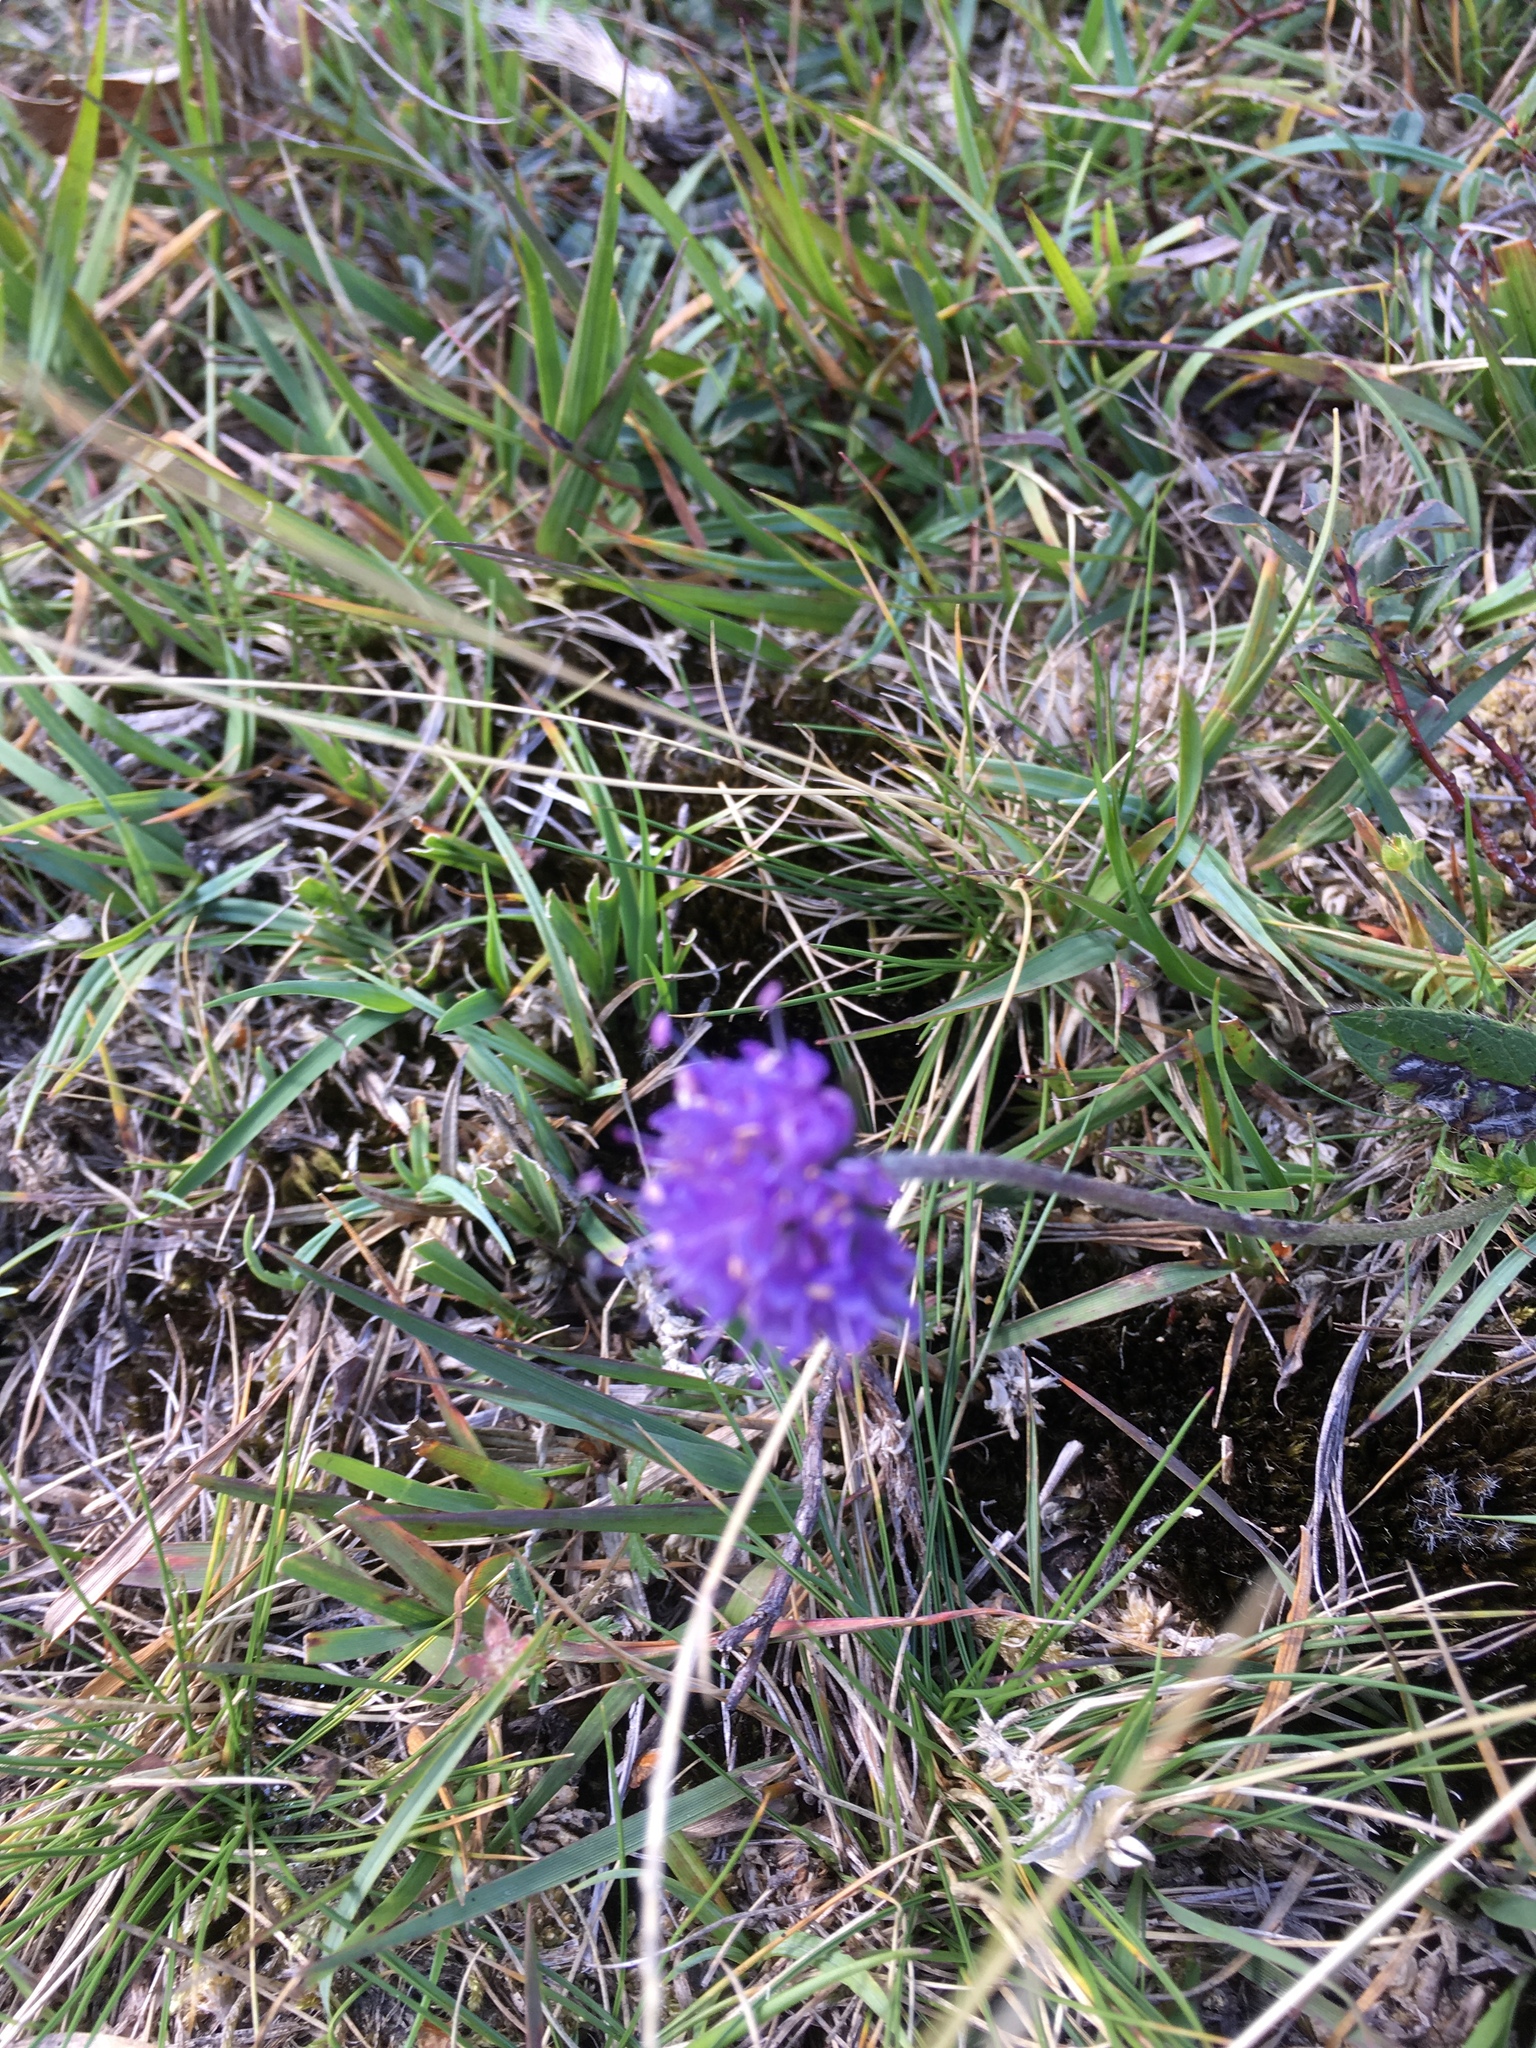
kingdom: Plantae
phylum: Tracheophyta
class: Magnoliopsida
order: Dipsacales
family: Caprifoliaceae
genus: Succisa
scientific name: Succisa pratensis
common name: Devil's-bit
